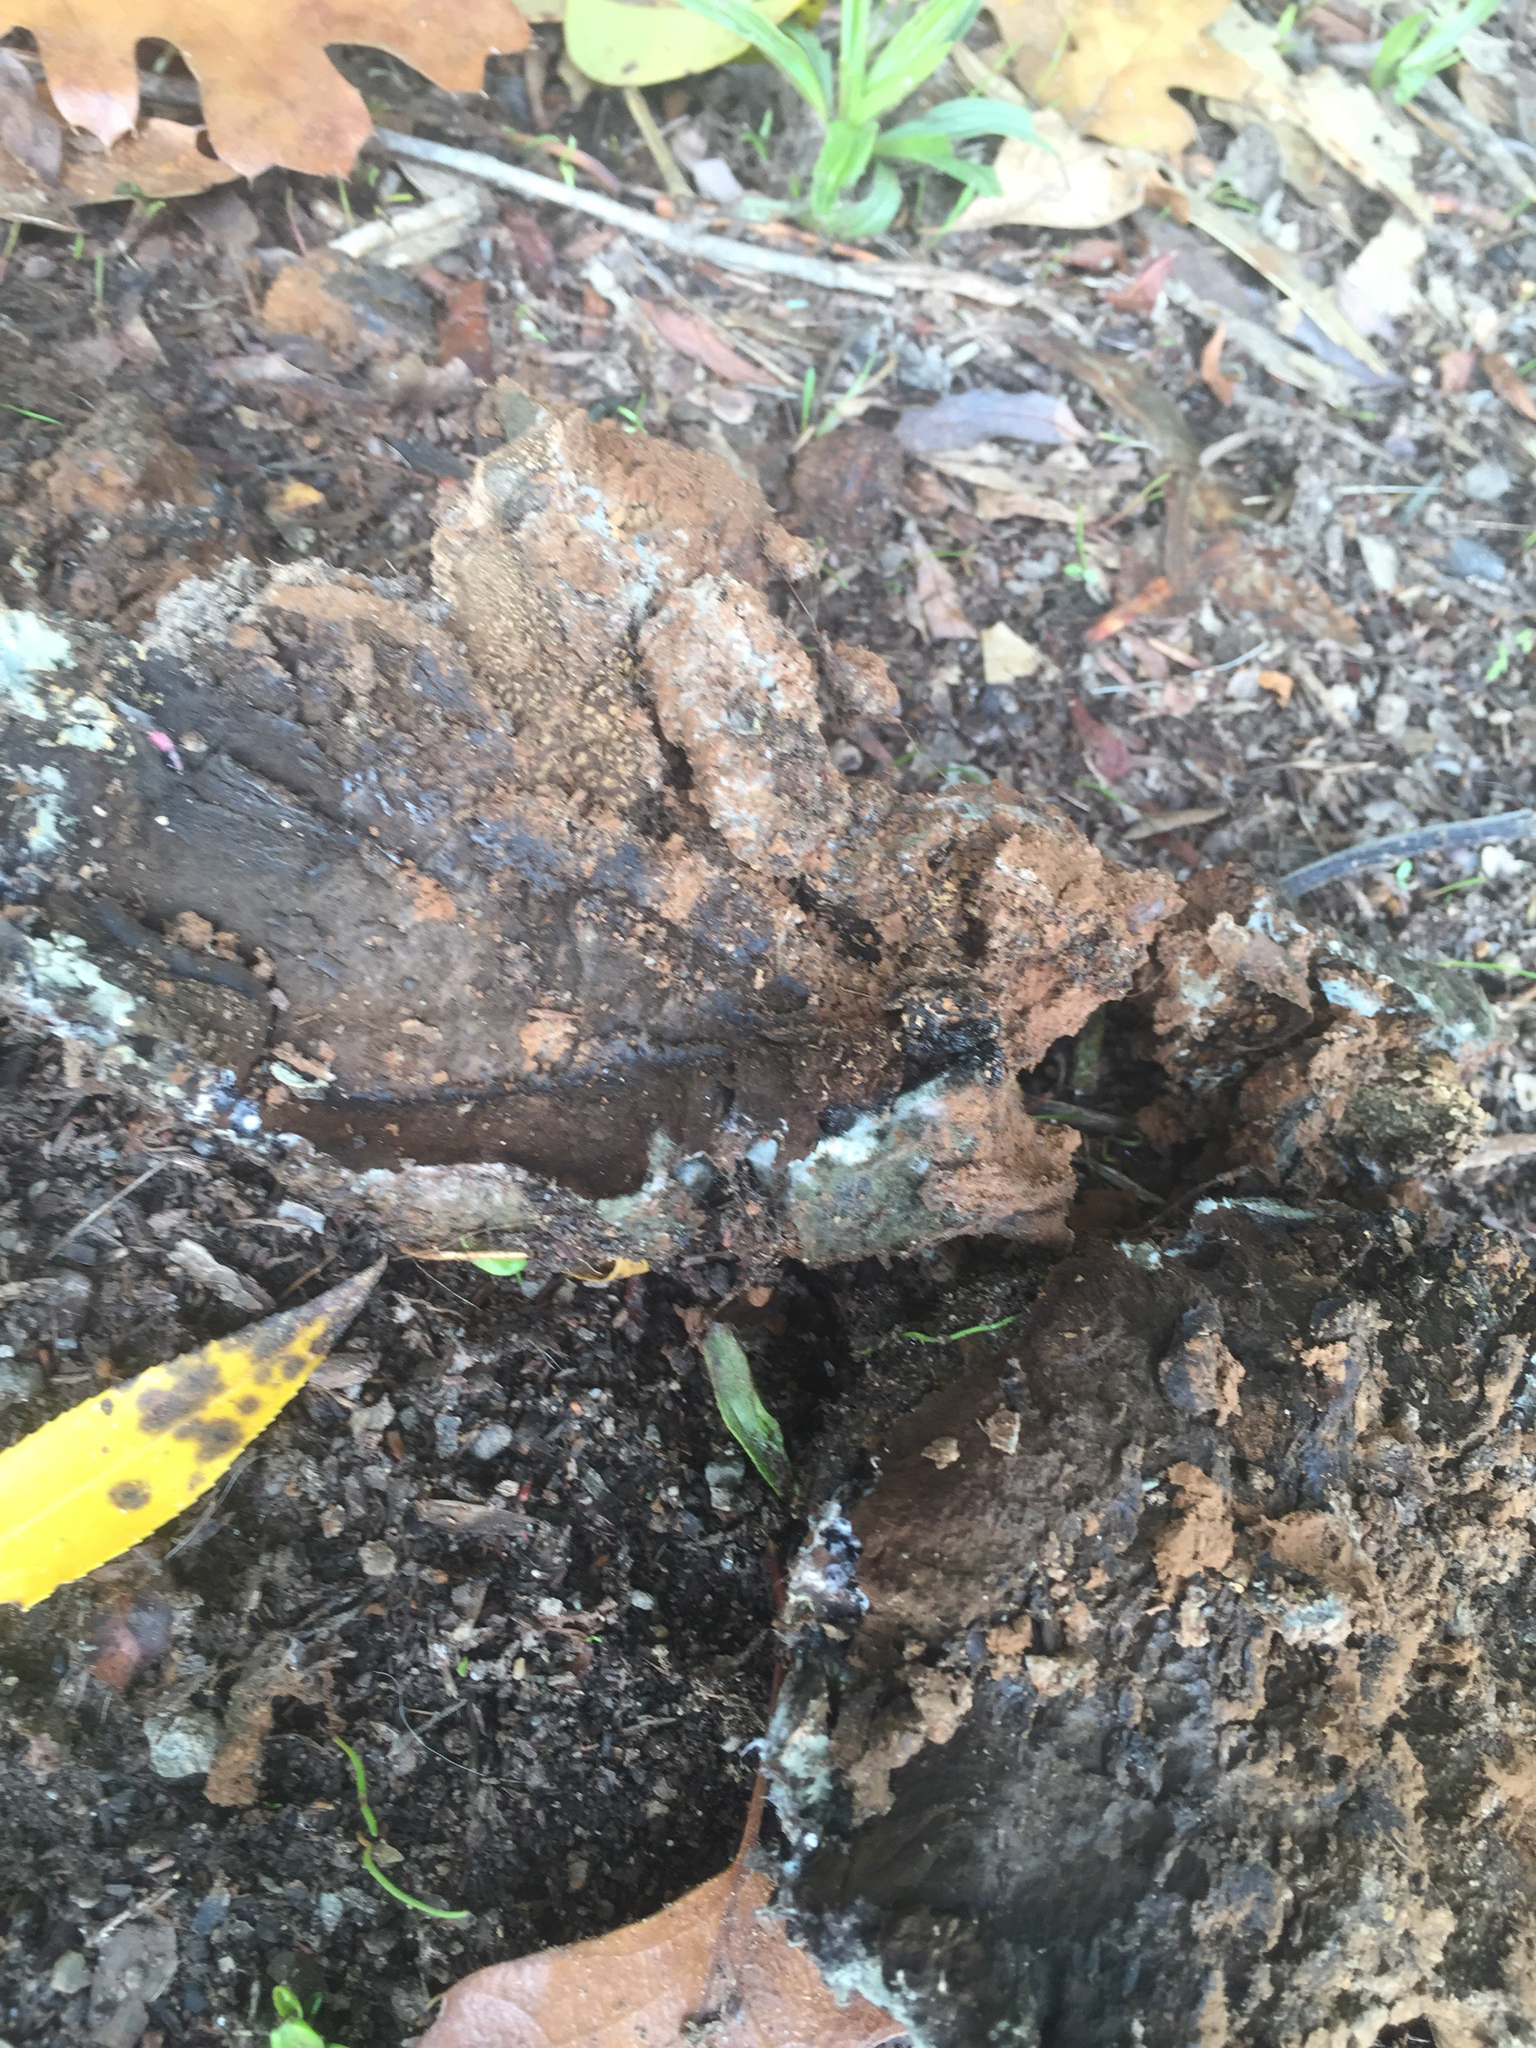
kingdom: Fungi
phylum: Basidiomycota
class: Agaricomycetes
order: Boletales
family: Sclerodermataceae
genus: Pisolithus
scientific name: Pisolithus arhizus
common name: Dyeball
